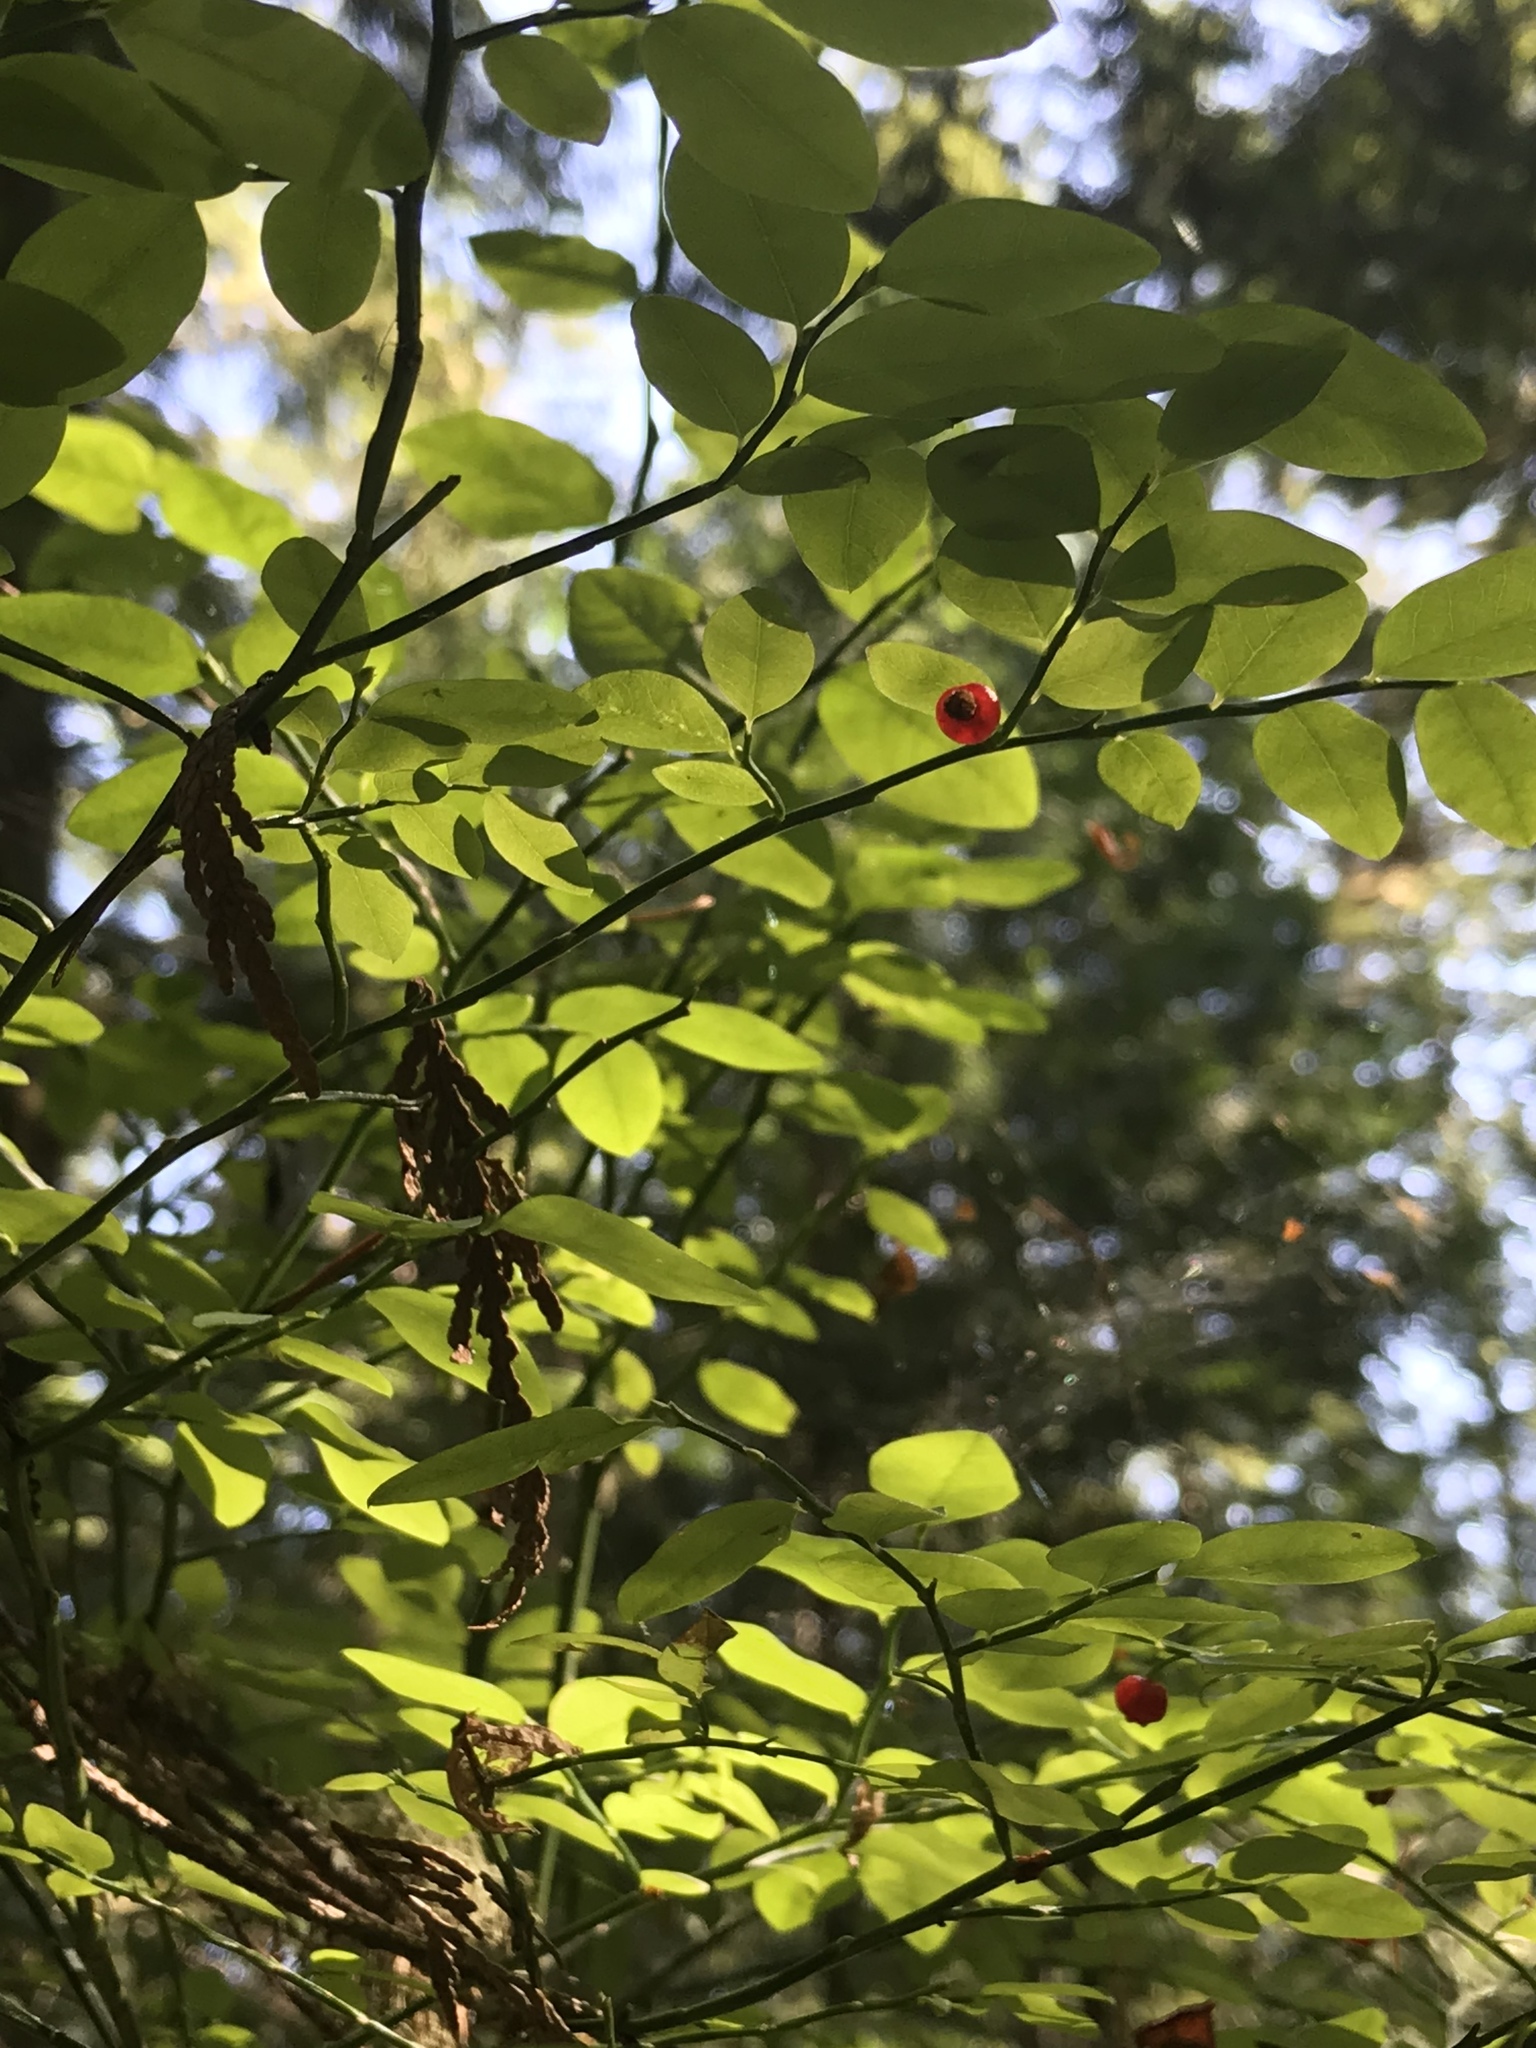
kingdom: Plantae
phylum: Tracheophyta
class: Magnoliopsida
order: Ericales
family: Ericaceae
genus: Vaccinium
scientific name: Vaccinium parvifolium
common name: Red-huckleberry
